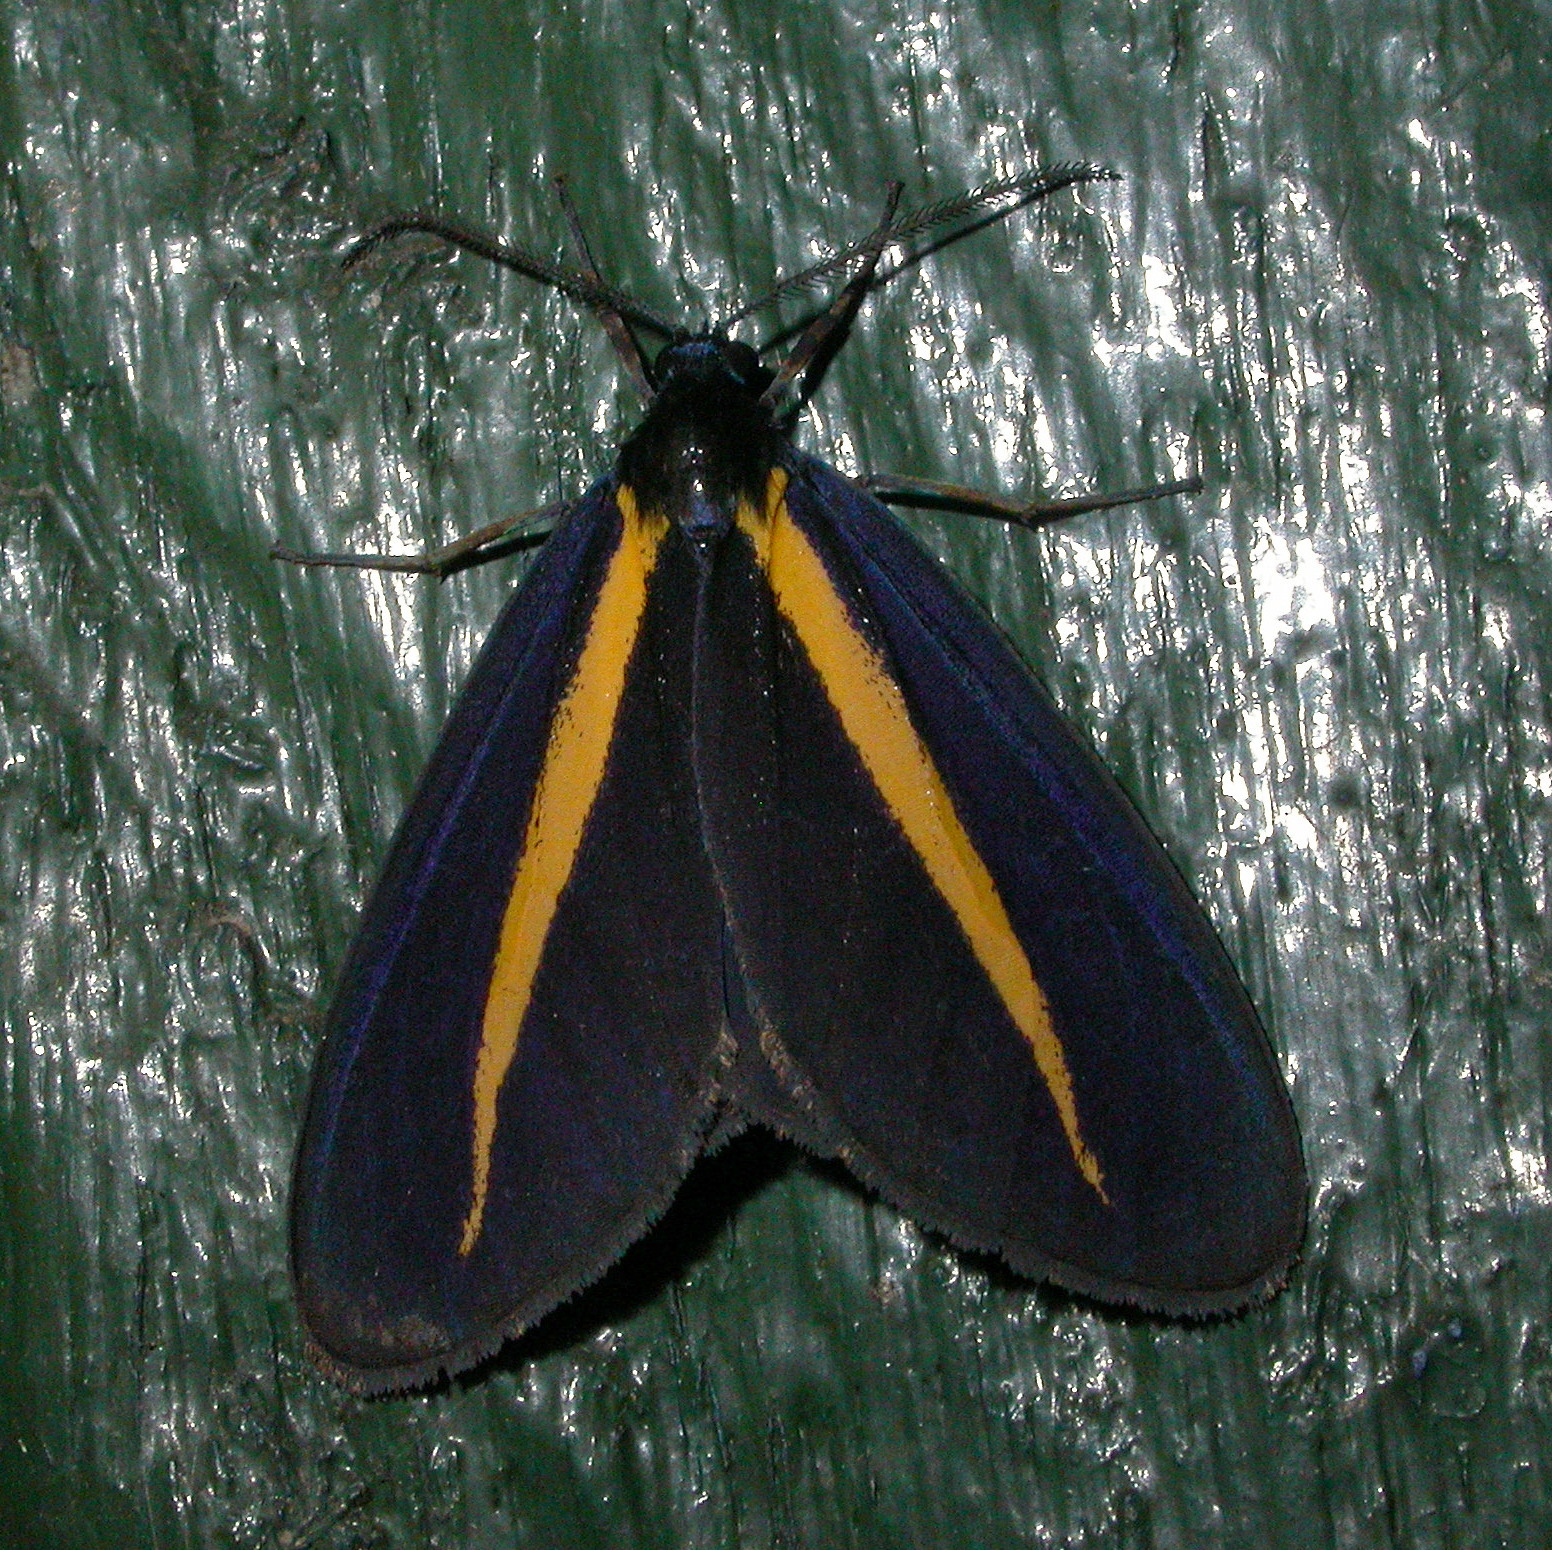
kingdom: Animalia
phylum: Arthropoda
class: Insecta
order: Lepidoptera
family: Erebidae
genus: Crocomela
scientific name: Crocomela erectistria
